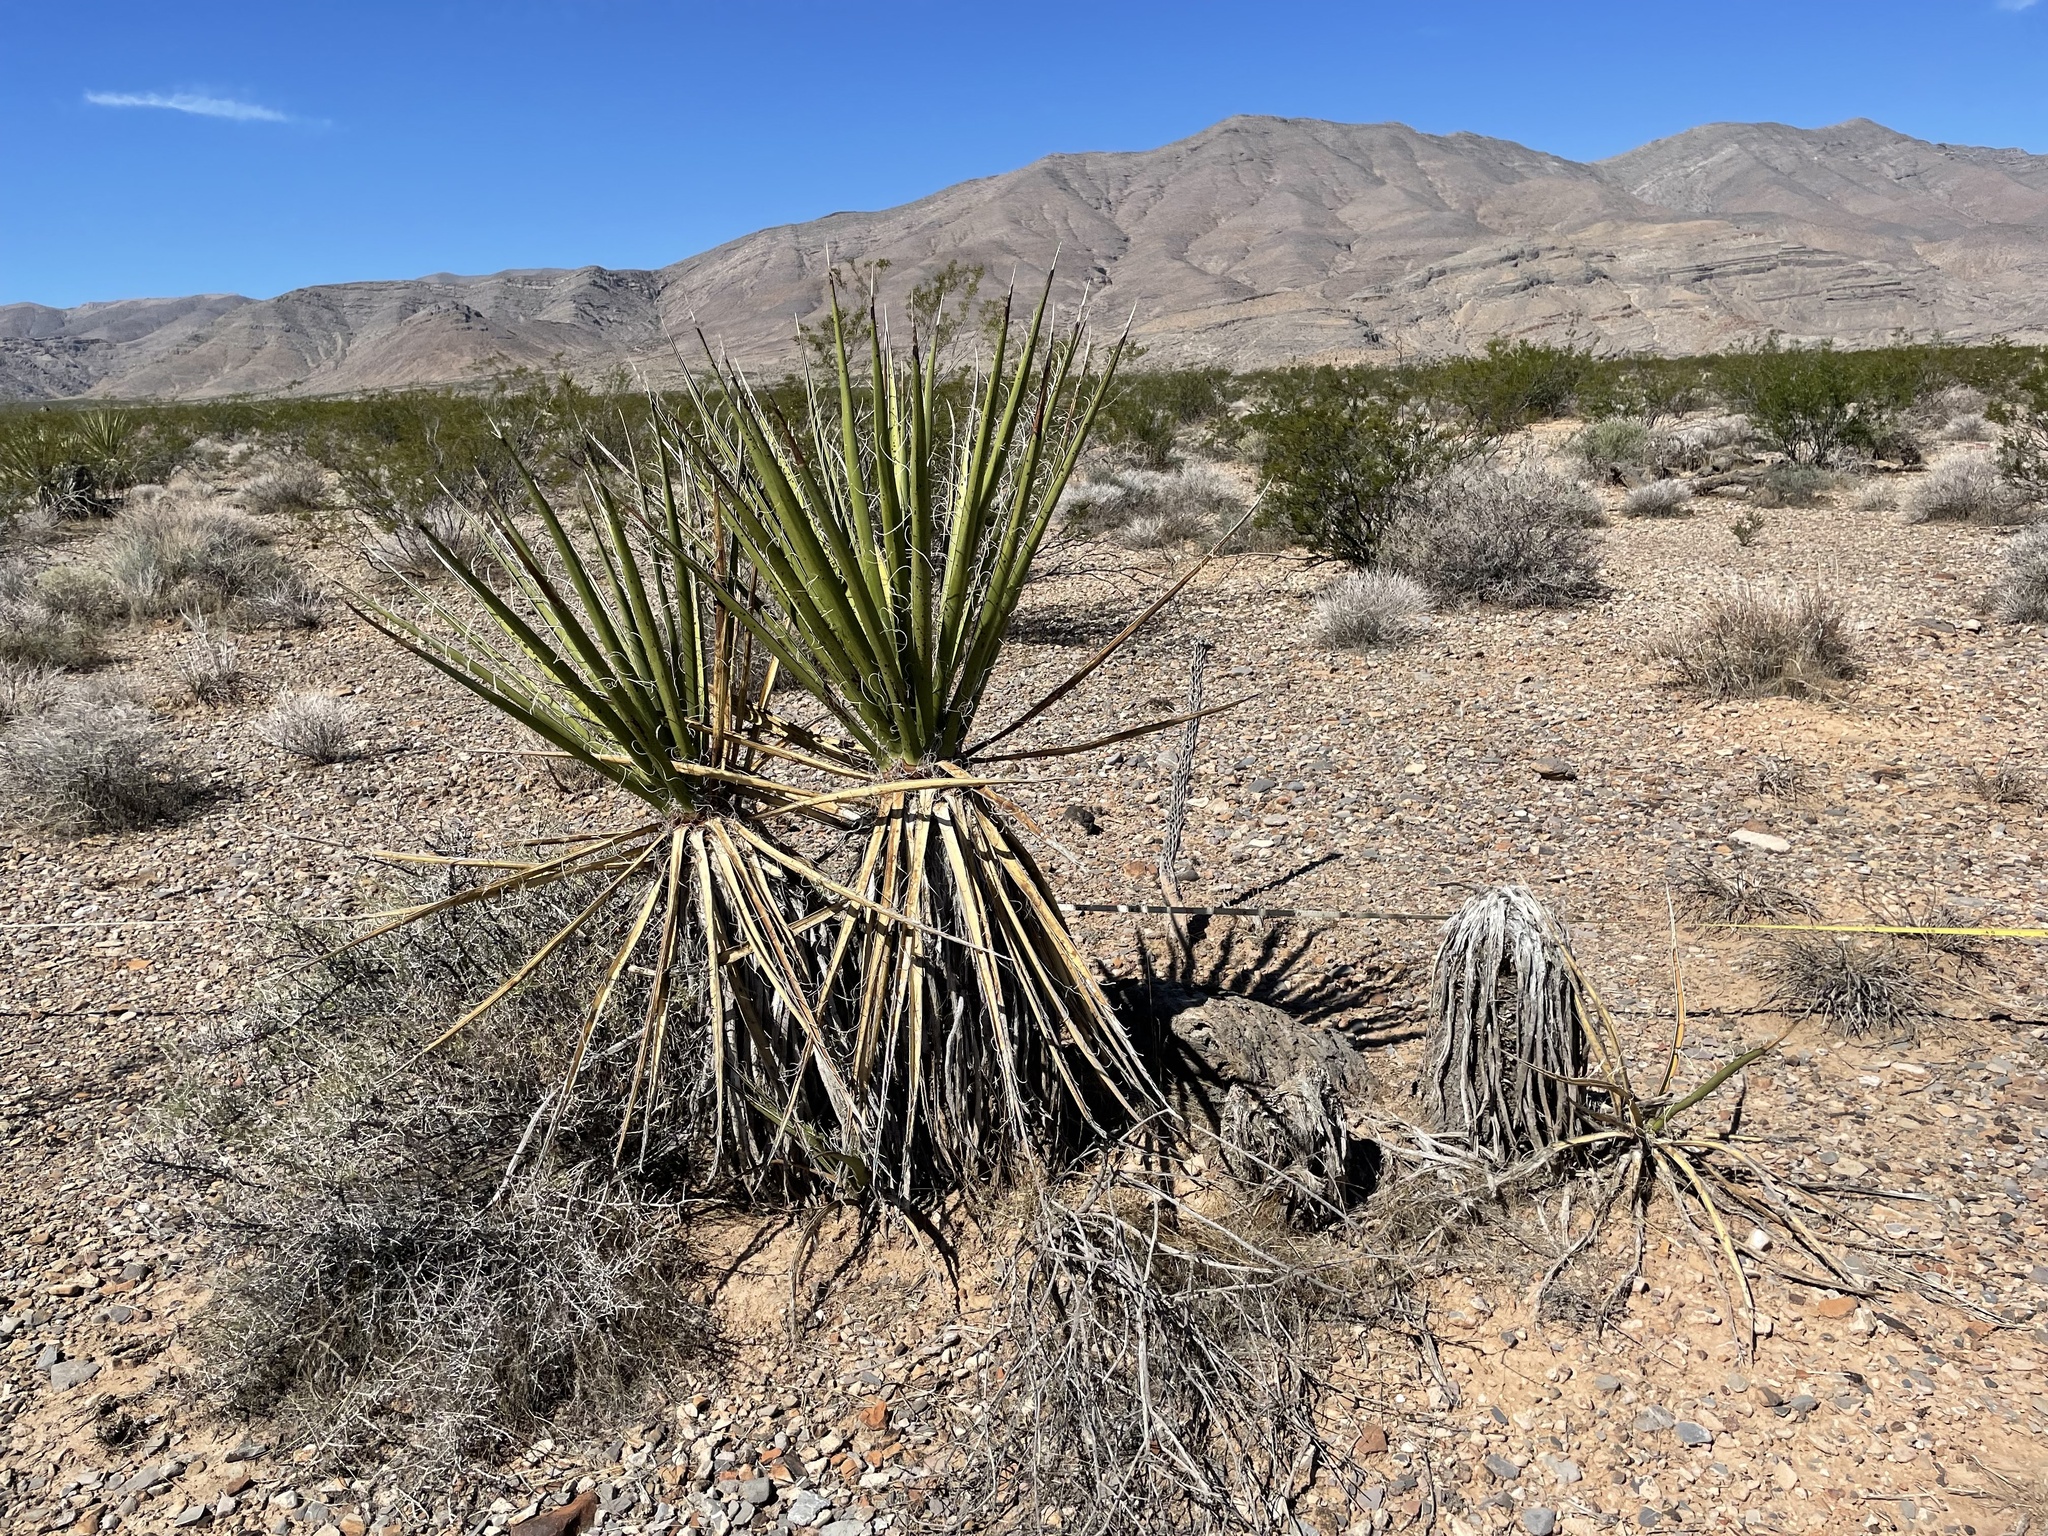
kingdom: Plantae
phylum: Tracheophyta
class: Liliopsida
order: Asparagales
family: Asparagaceae
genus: Yucca
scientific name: Yucca schidigera
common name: Mojave yucca
